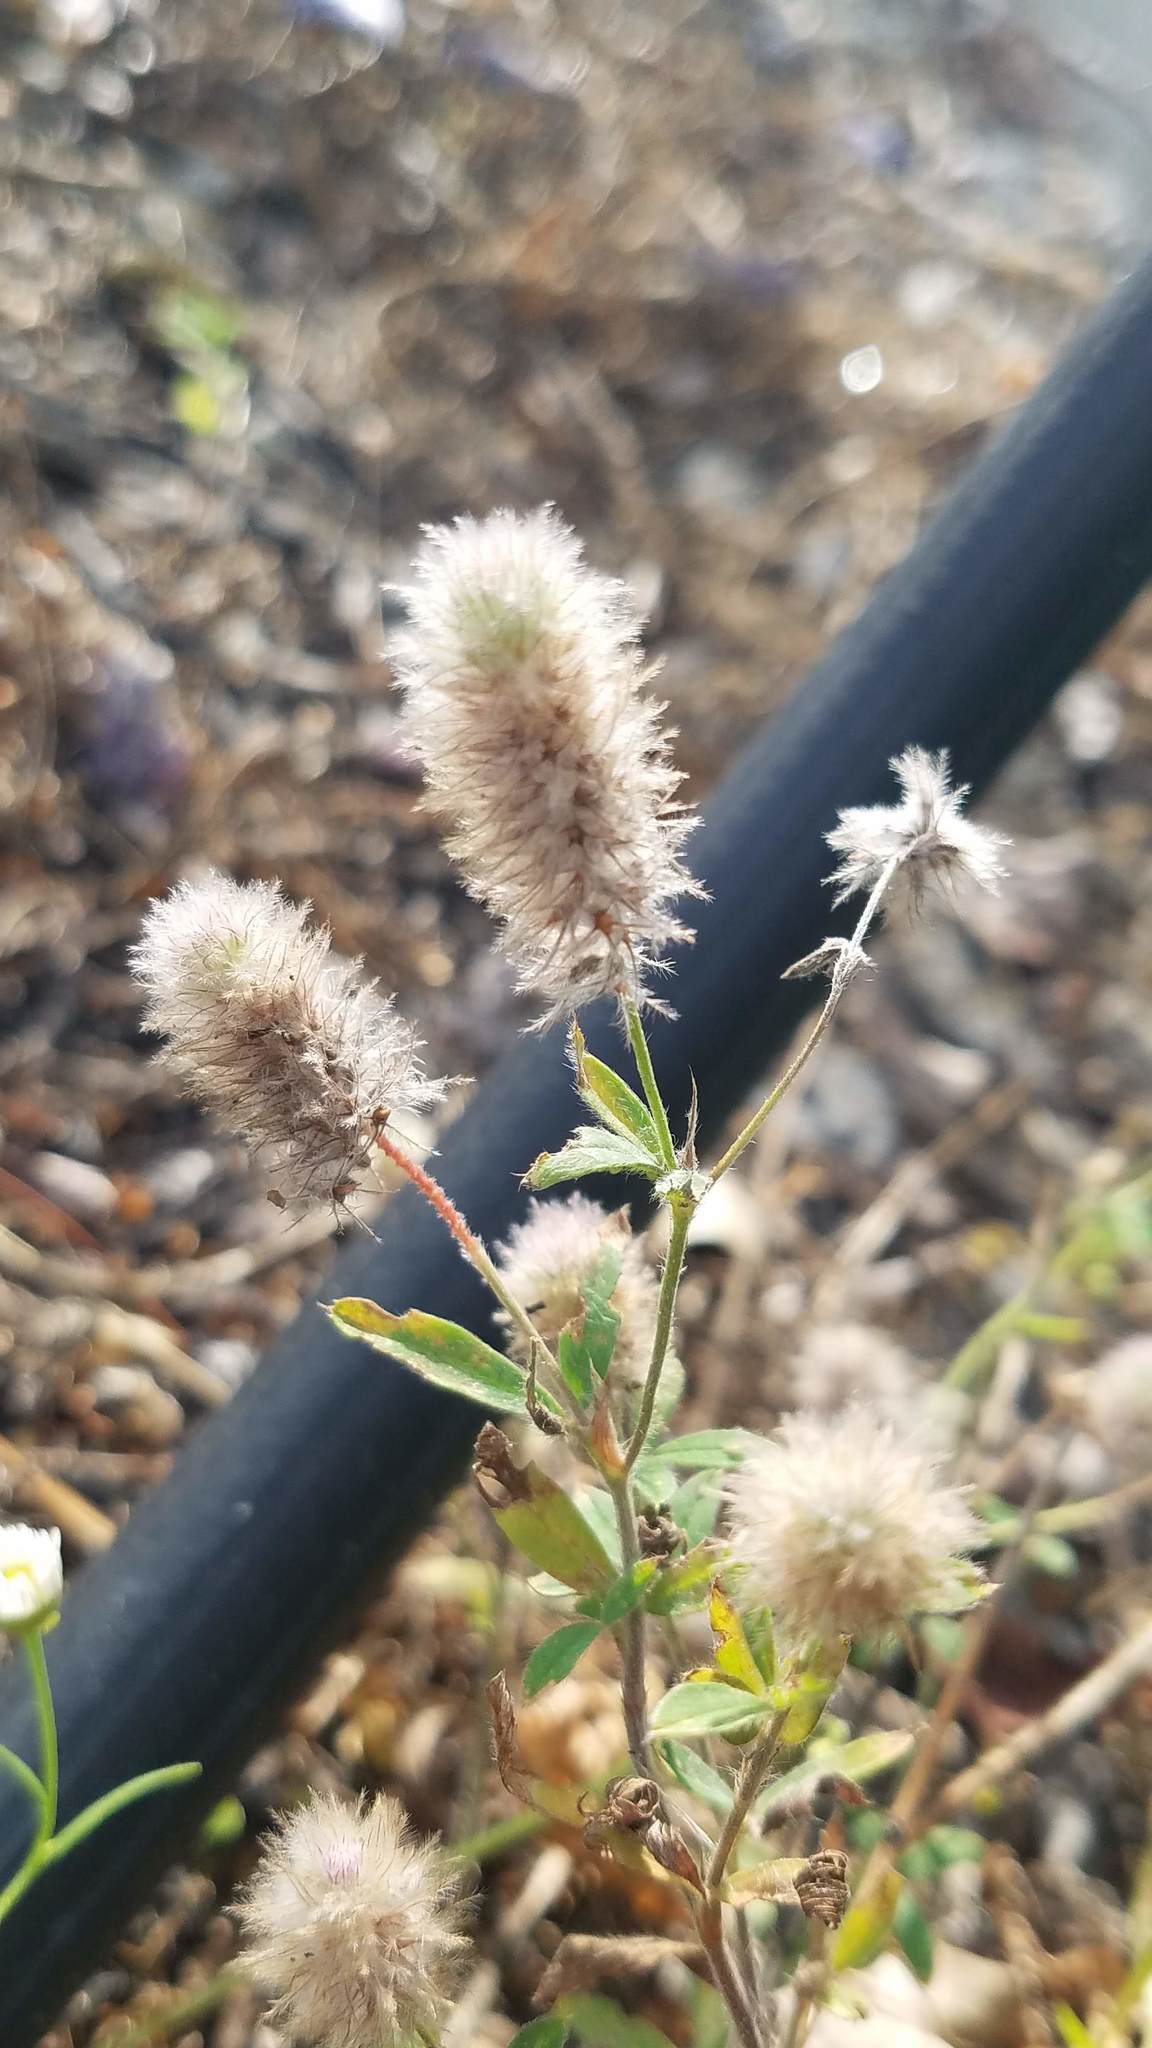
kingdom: Plantae
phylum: Tracheophyta
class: Magnoliopsida
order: Fabales
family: Fabaceae
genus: Trifolium
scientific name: Trifolium arvense
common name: Hare's-foot clover
